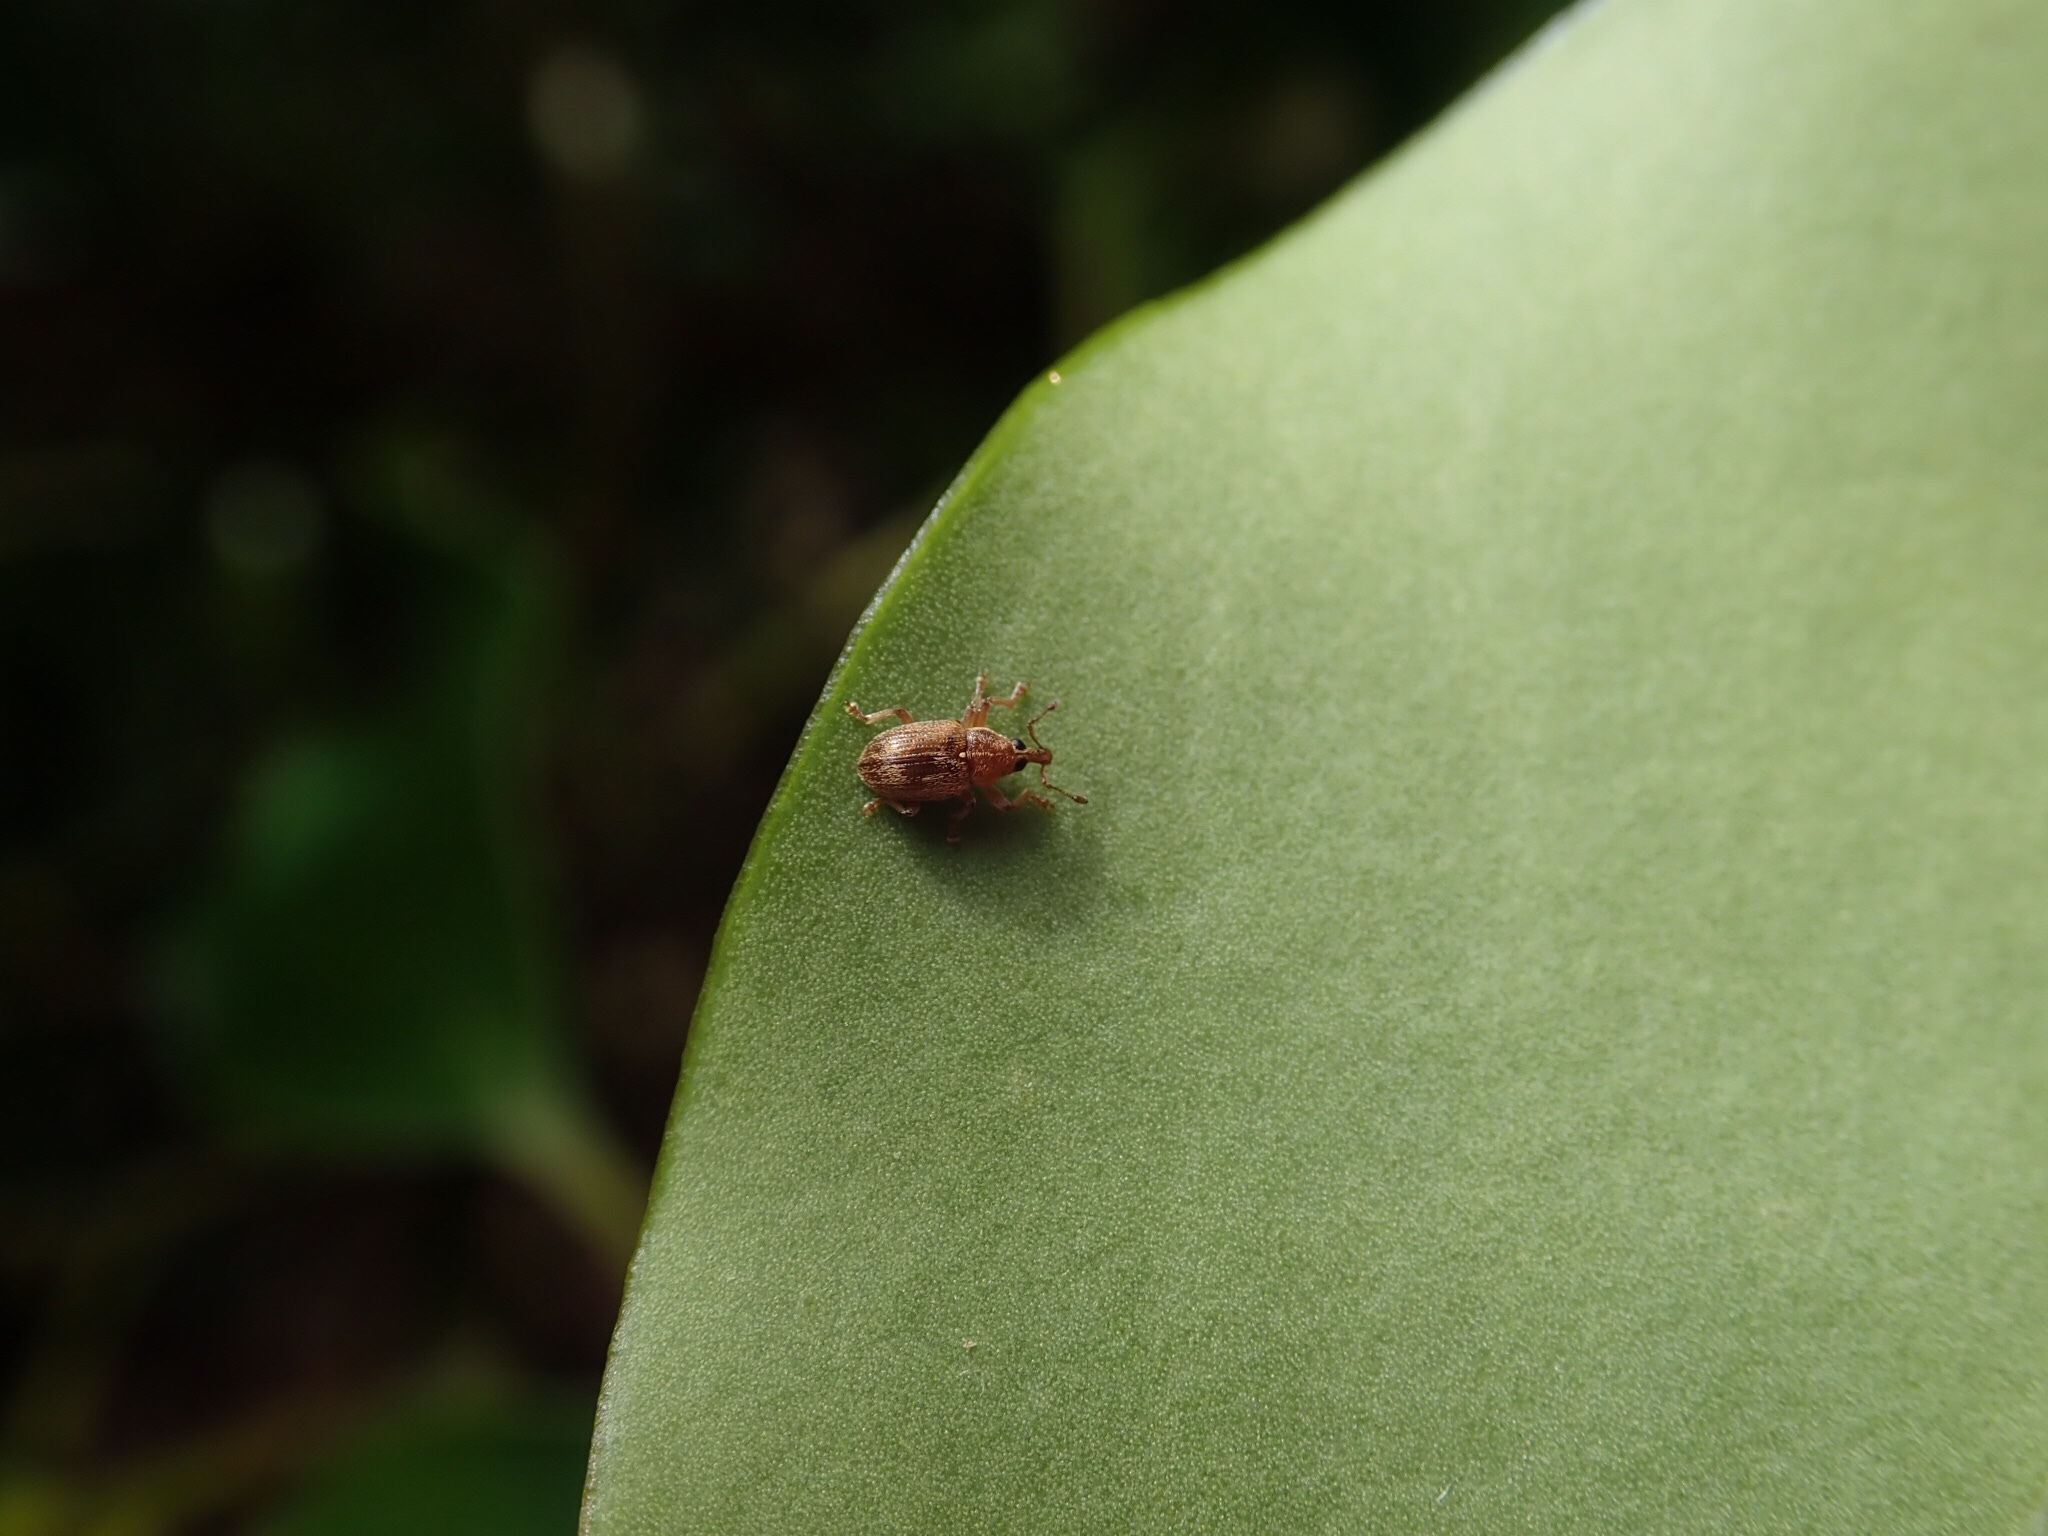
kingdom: Animalia
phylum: Arthropoda
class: Insecta
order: Coleoptera
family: Curculionidae
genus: Neomycta
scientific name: Neomycta rubida
